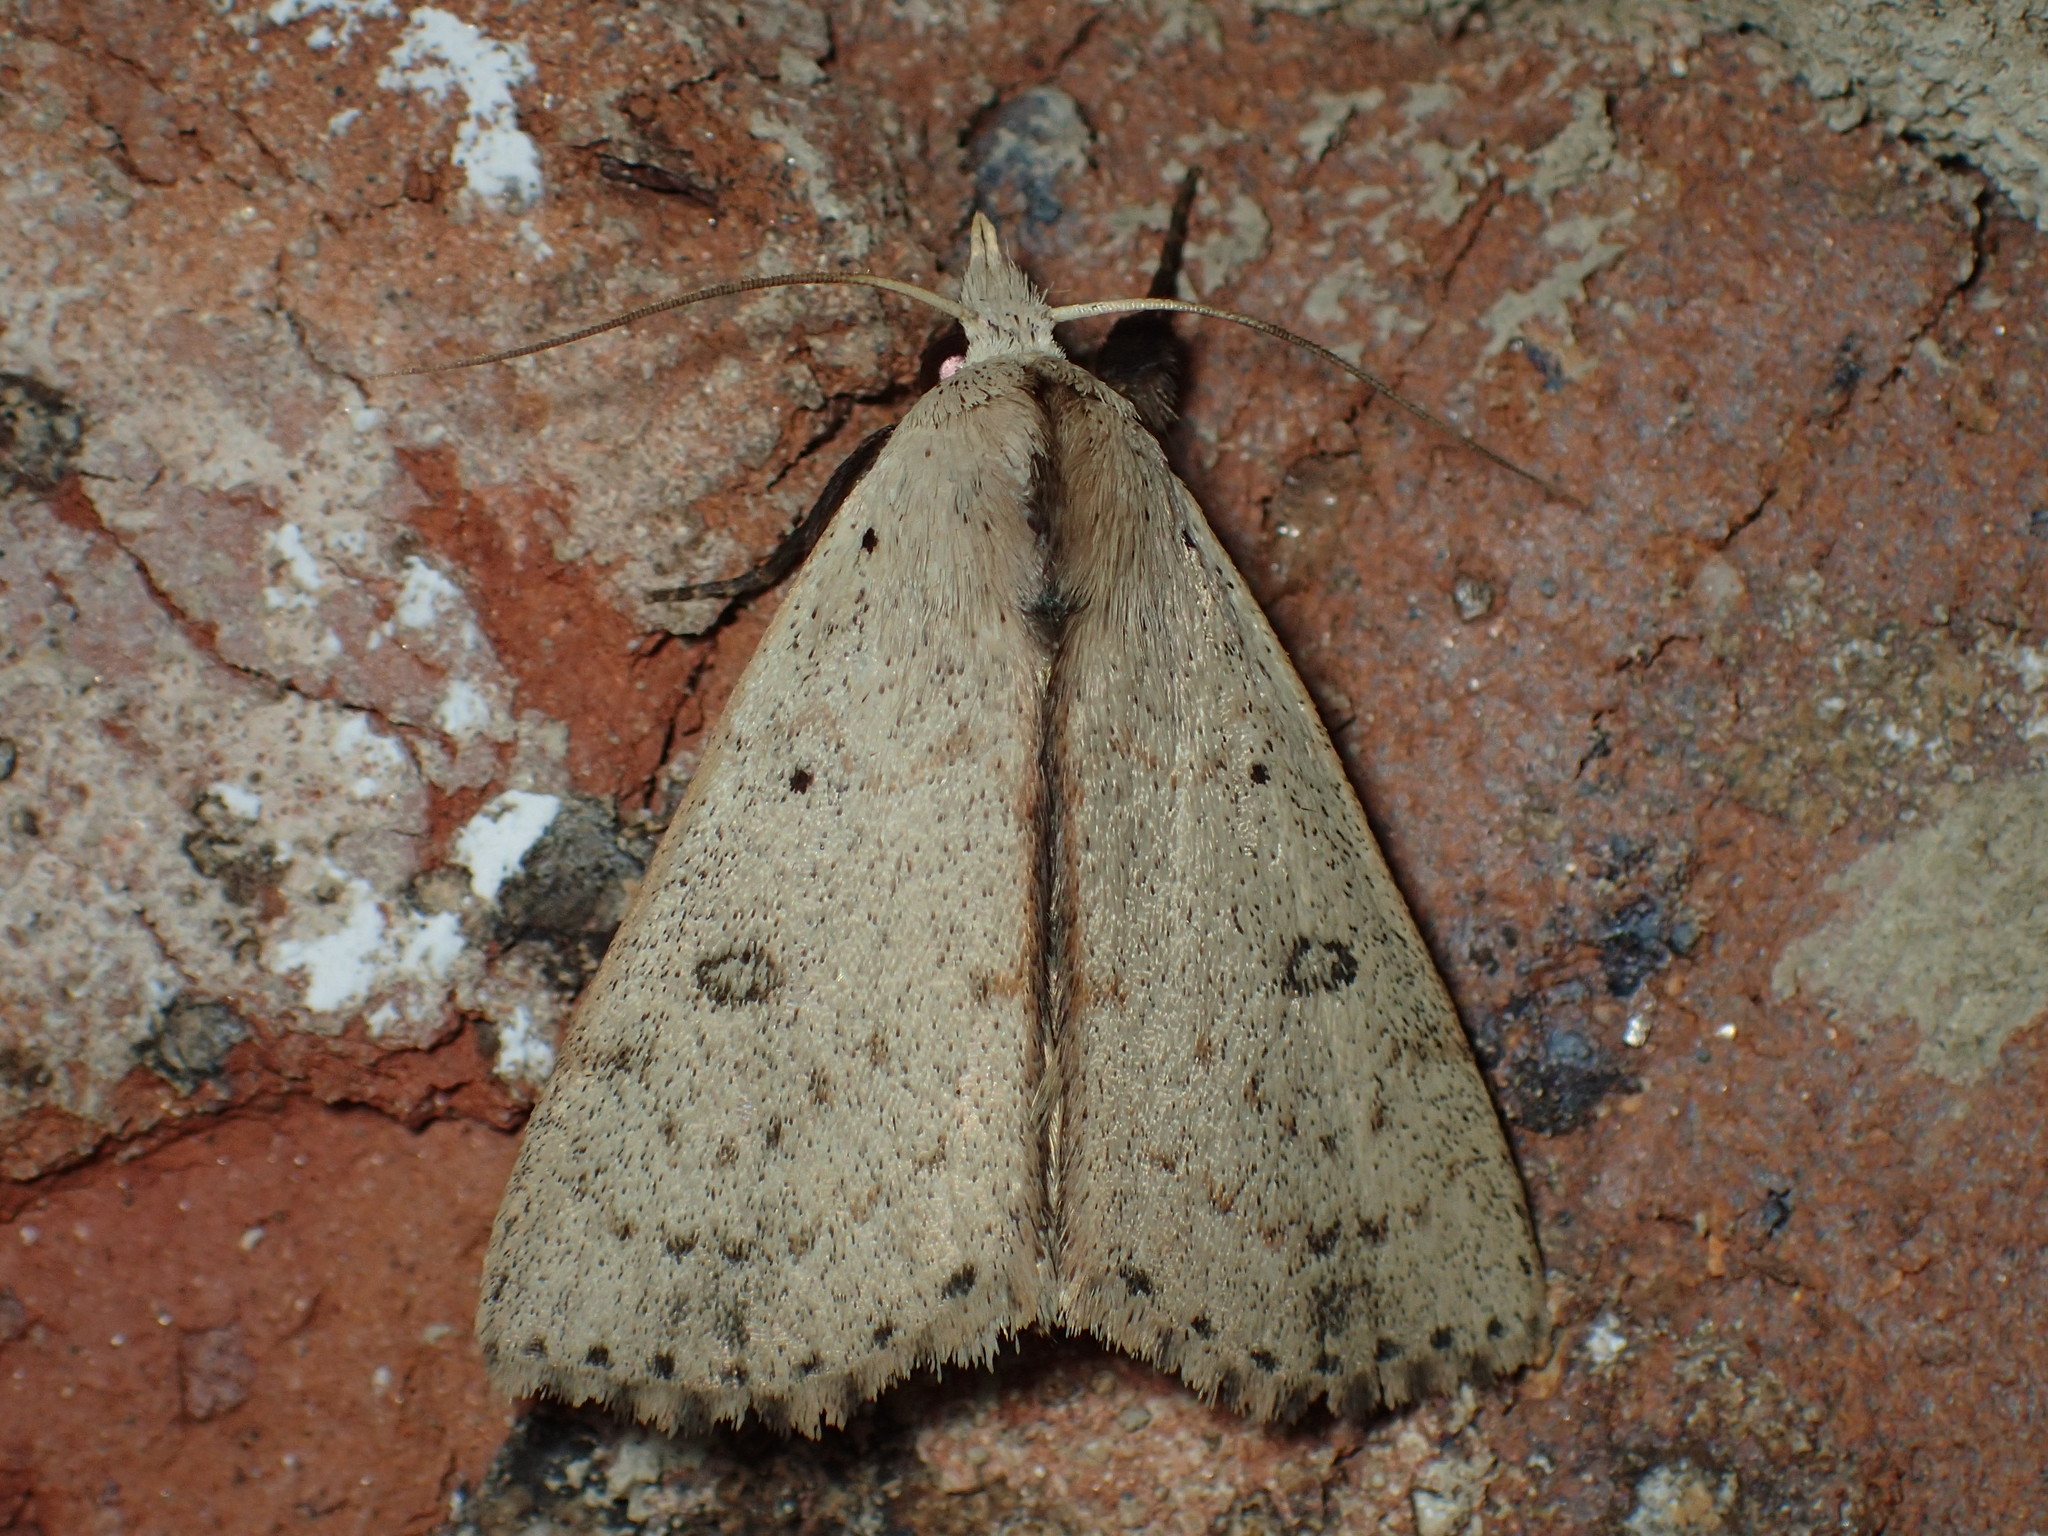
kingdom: Animalia
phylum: Arthropoda
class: Insecta
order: Lepidoptera
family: Erebidae
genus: Scolecocampa
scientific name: Scolecocampa liburna
